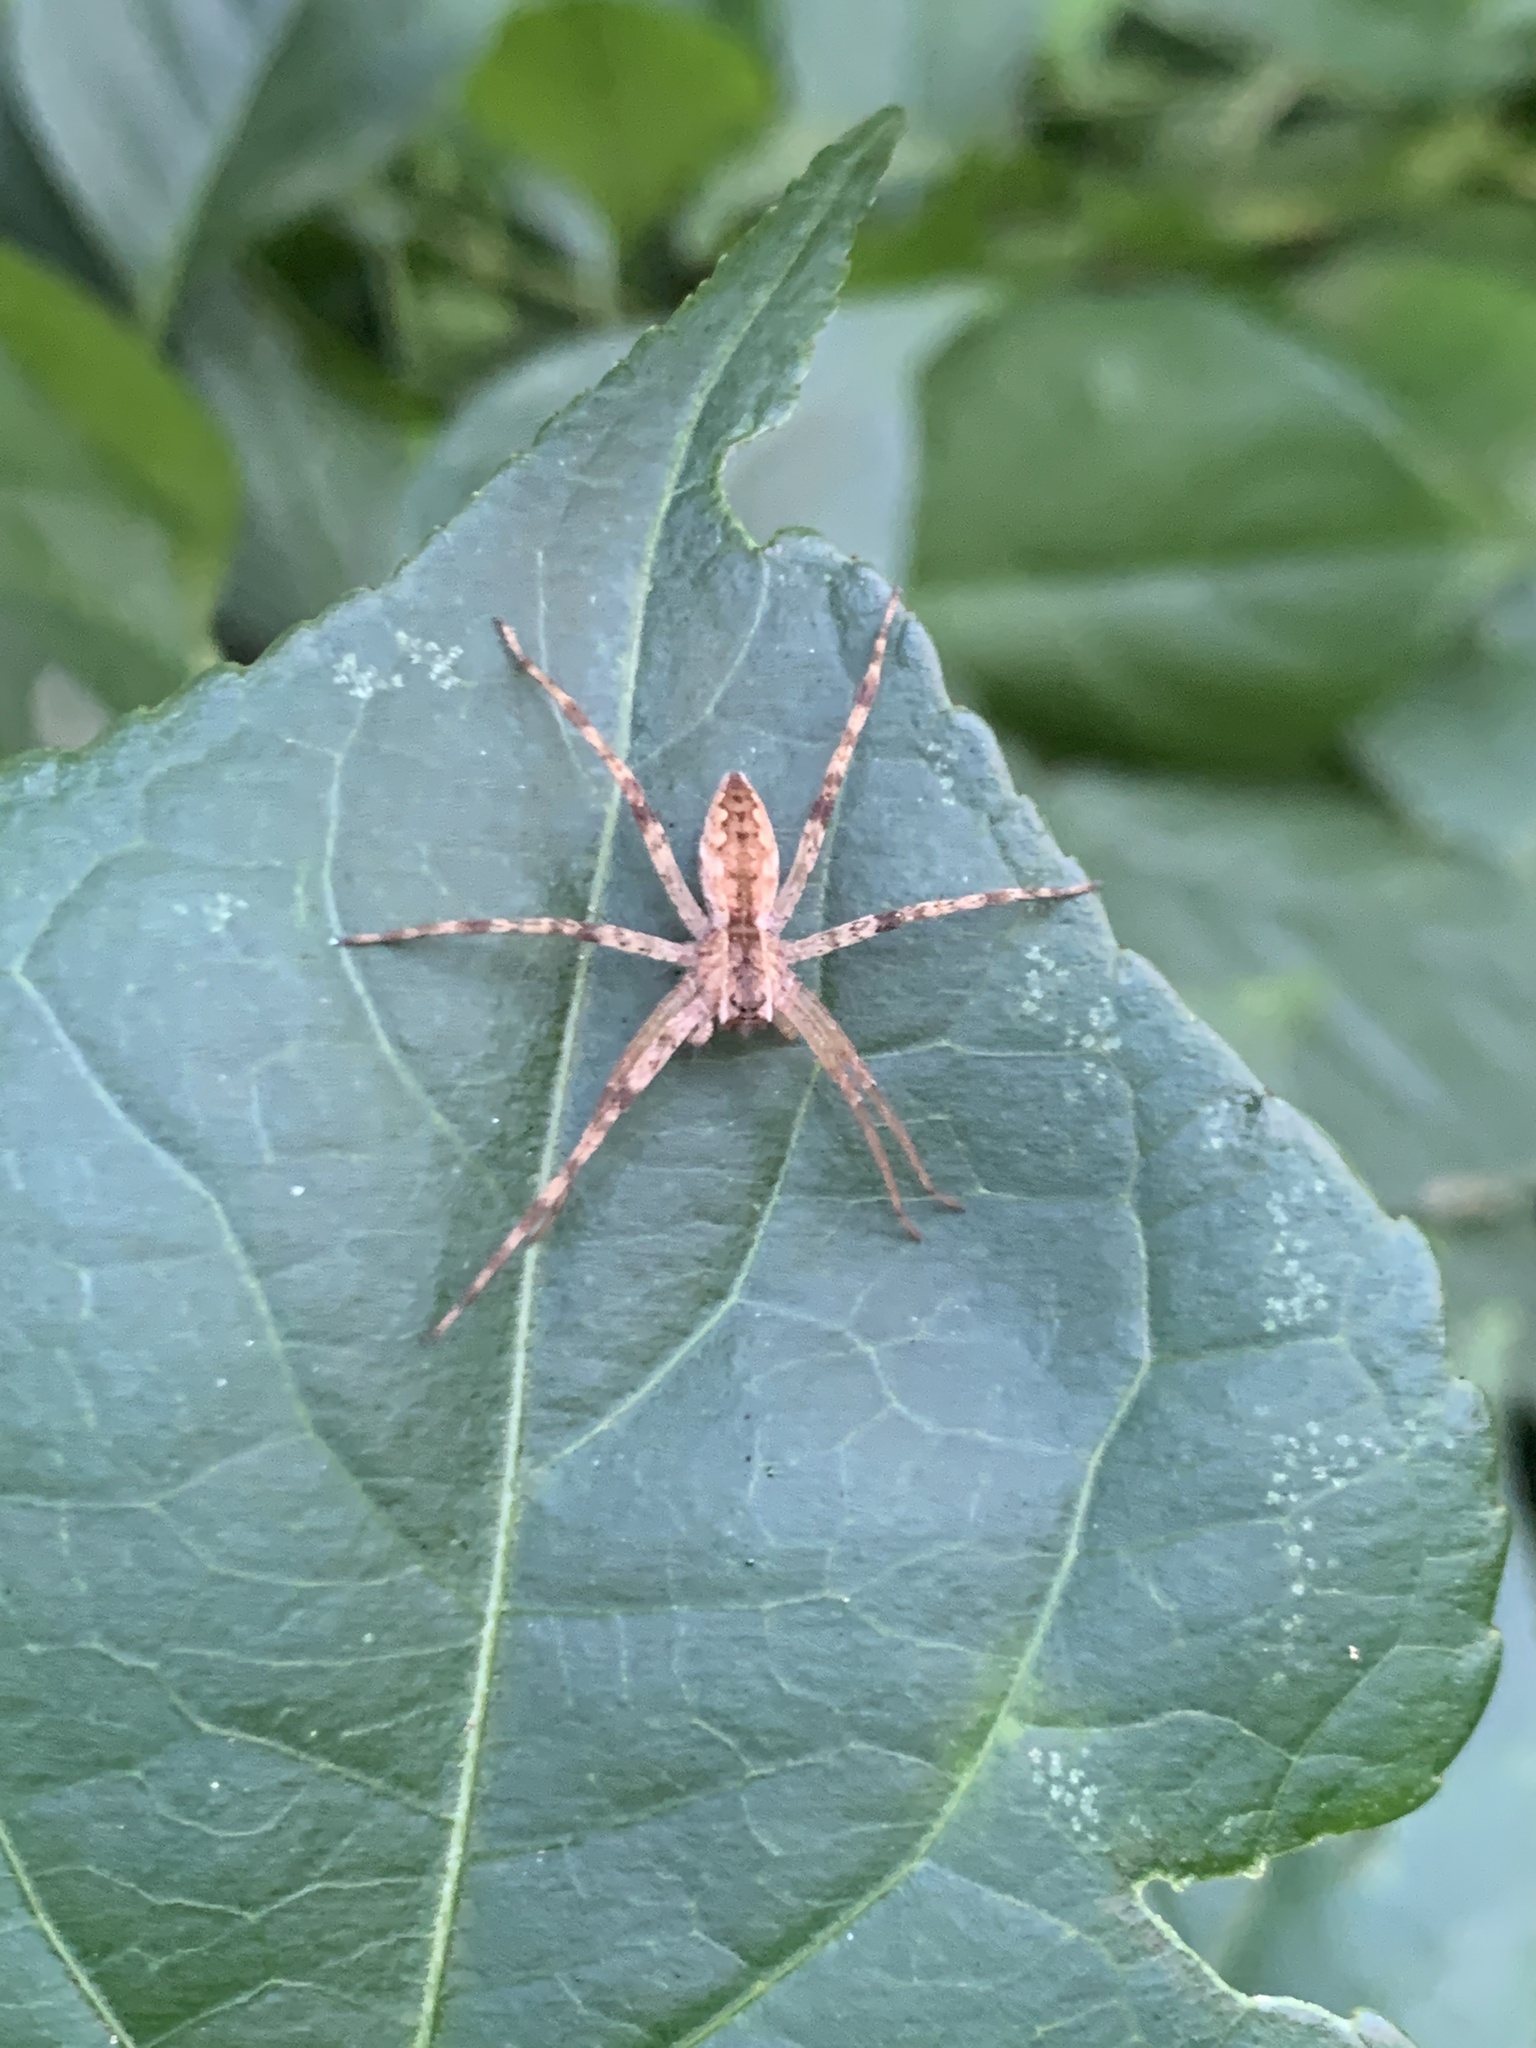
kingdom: Animalia
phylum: Arthropoda
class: Arachnida
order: Araneae
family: Pisauridae
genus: Pisaurina
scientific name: Pisaurina mira
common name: American nursery web spider
